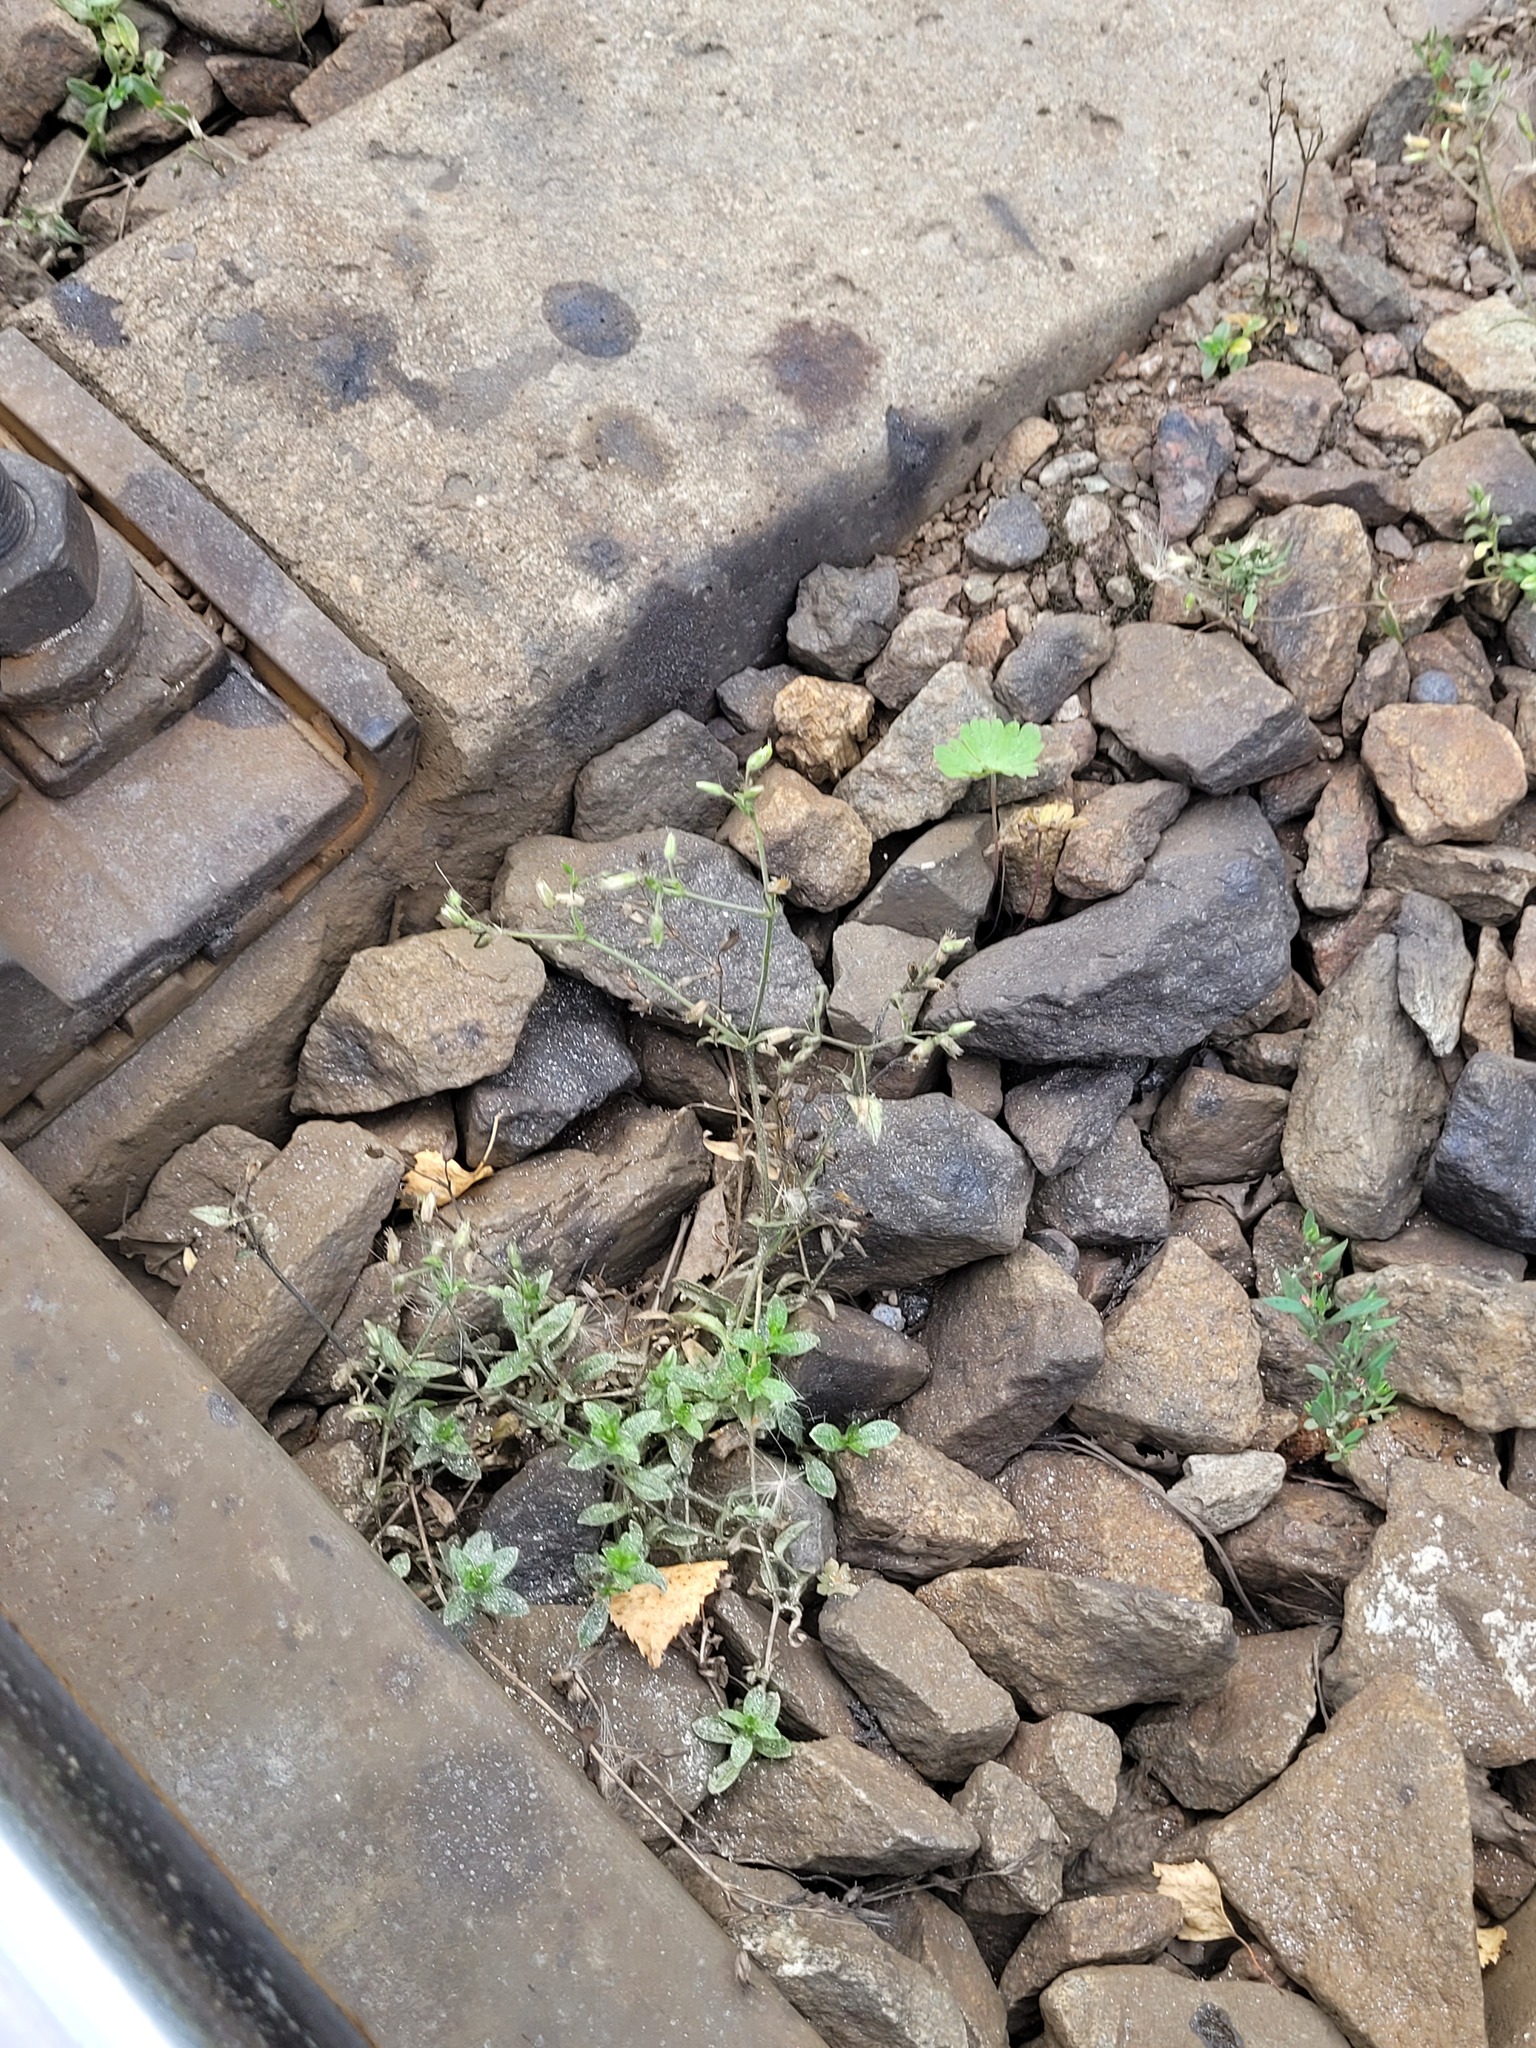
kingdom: Plantae
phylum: Tracheophyta
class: Magnoliopsida
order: Caryophyllales
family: Caryophyllaceae
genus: Cerastium
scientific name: Cerastium holosteoides
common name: Big chickweed
